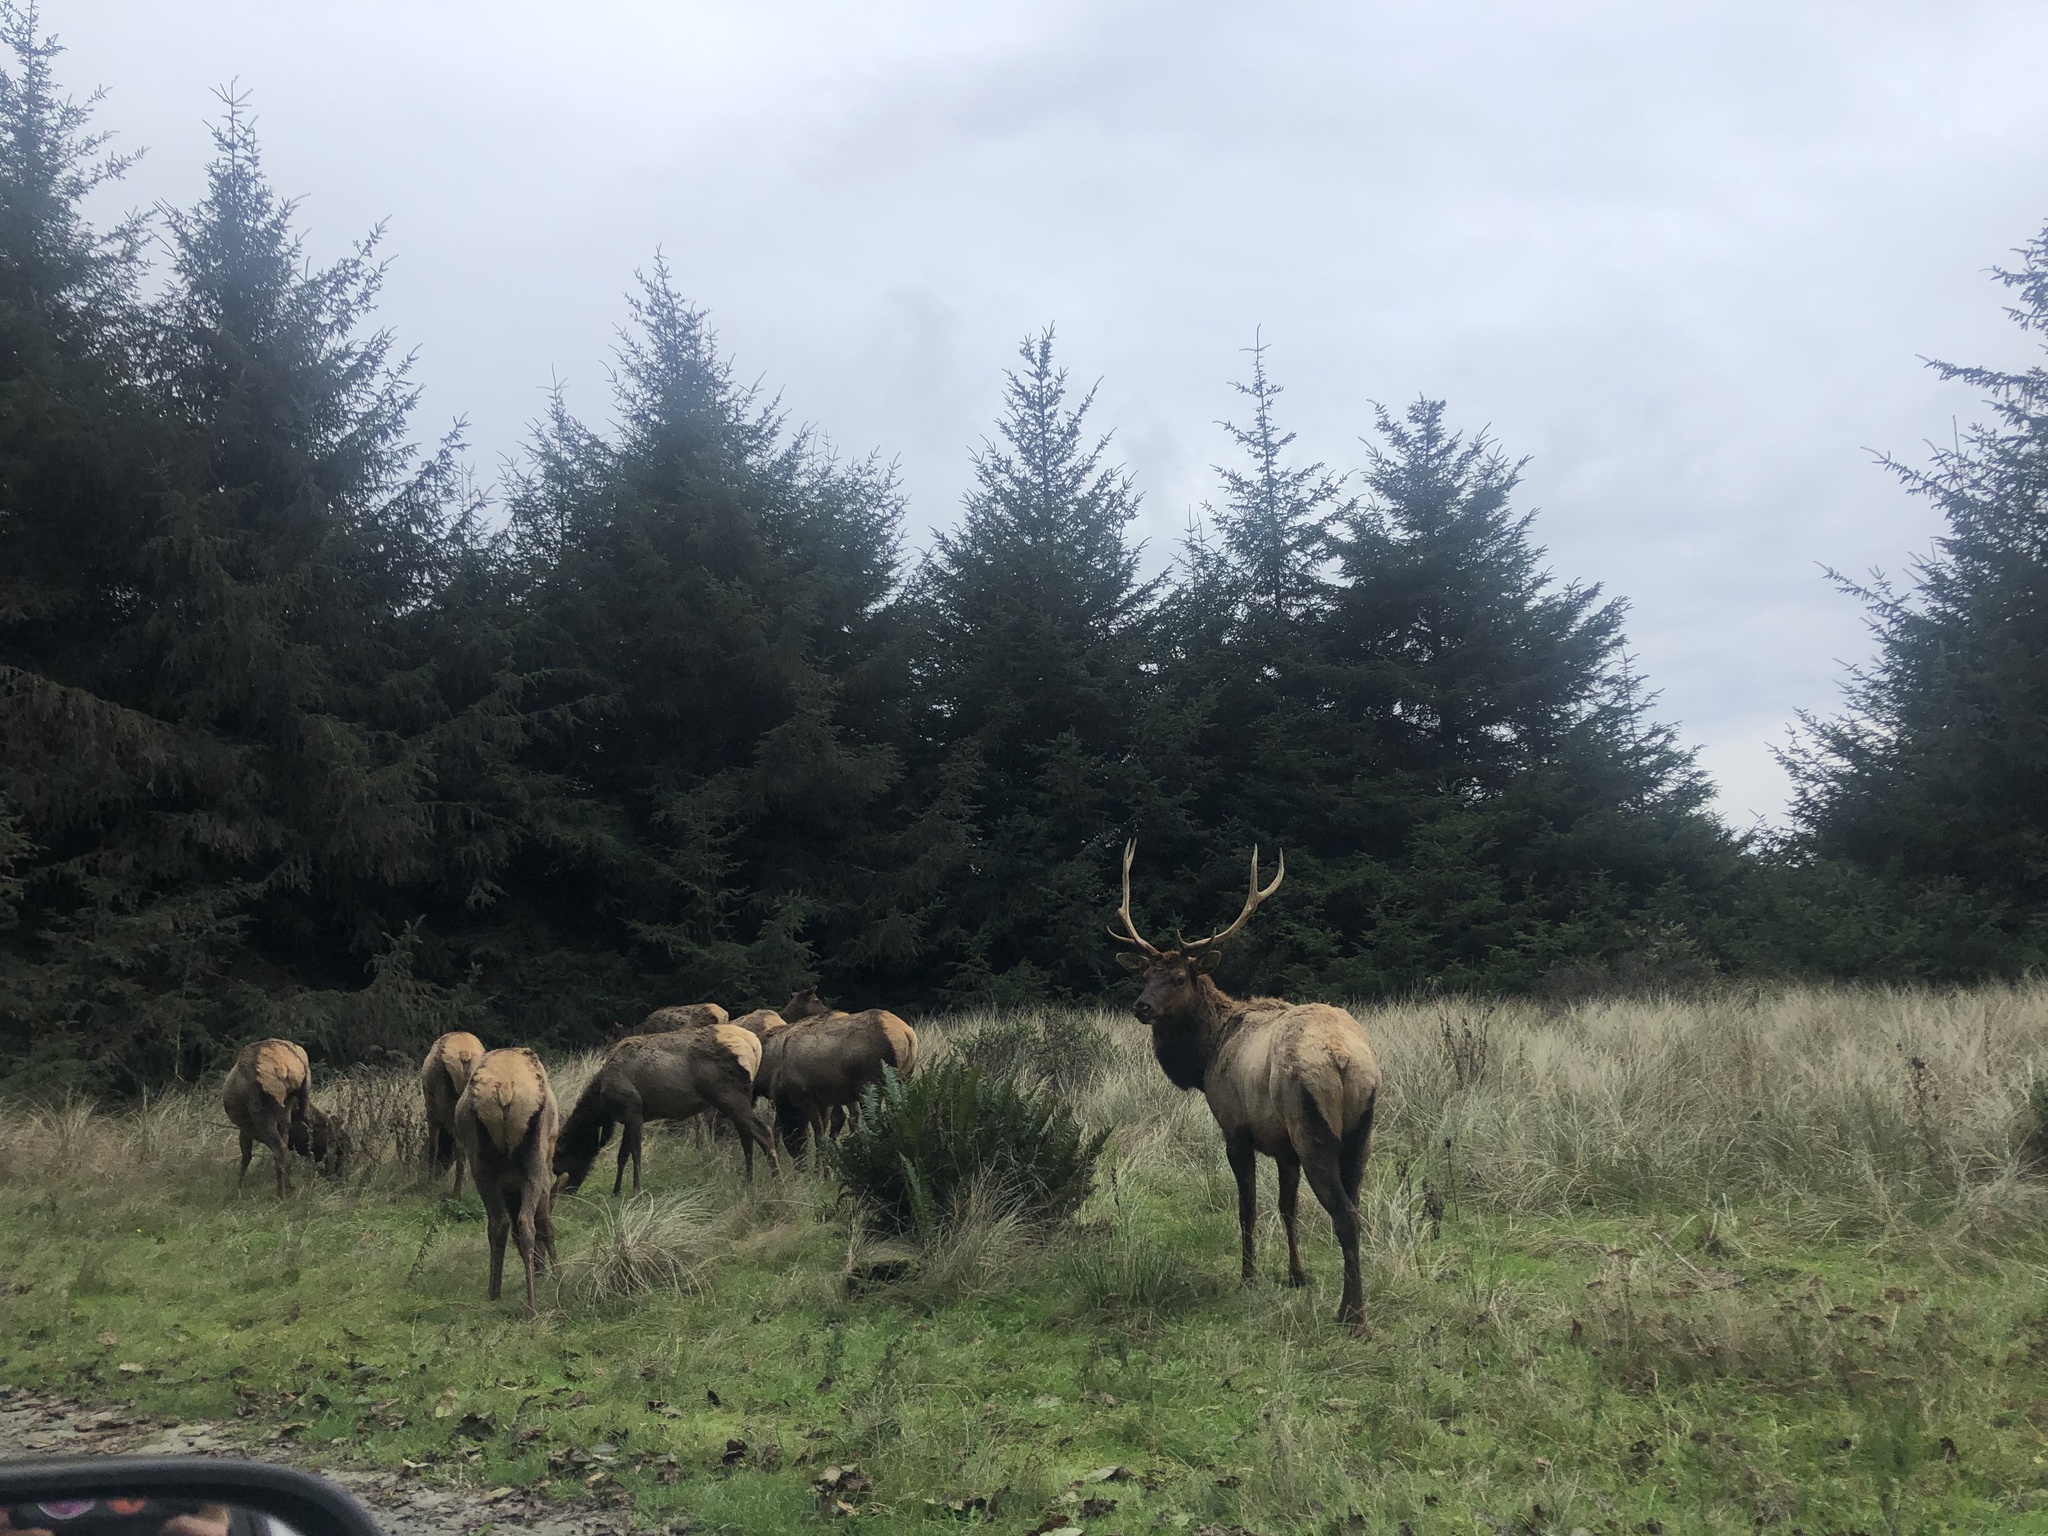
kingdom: Animalia
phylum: Chordata
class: Mammalia
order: Artiodactyla
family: Cervidae
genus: Cervus
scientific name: Cervus elaphus
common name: Red deer
